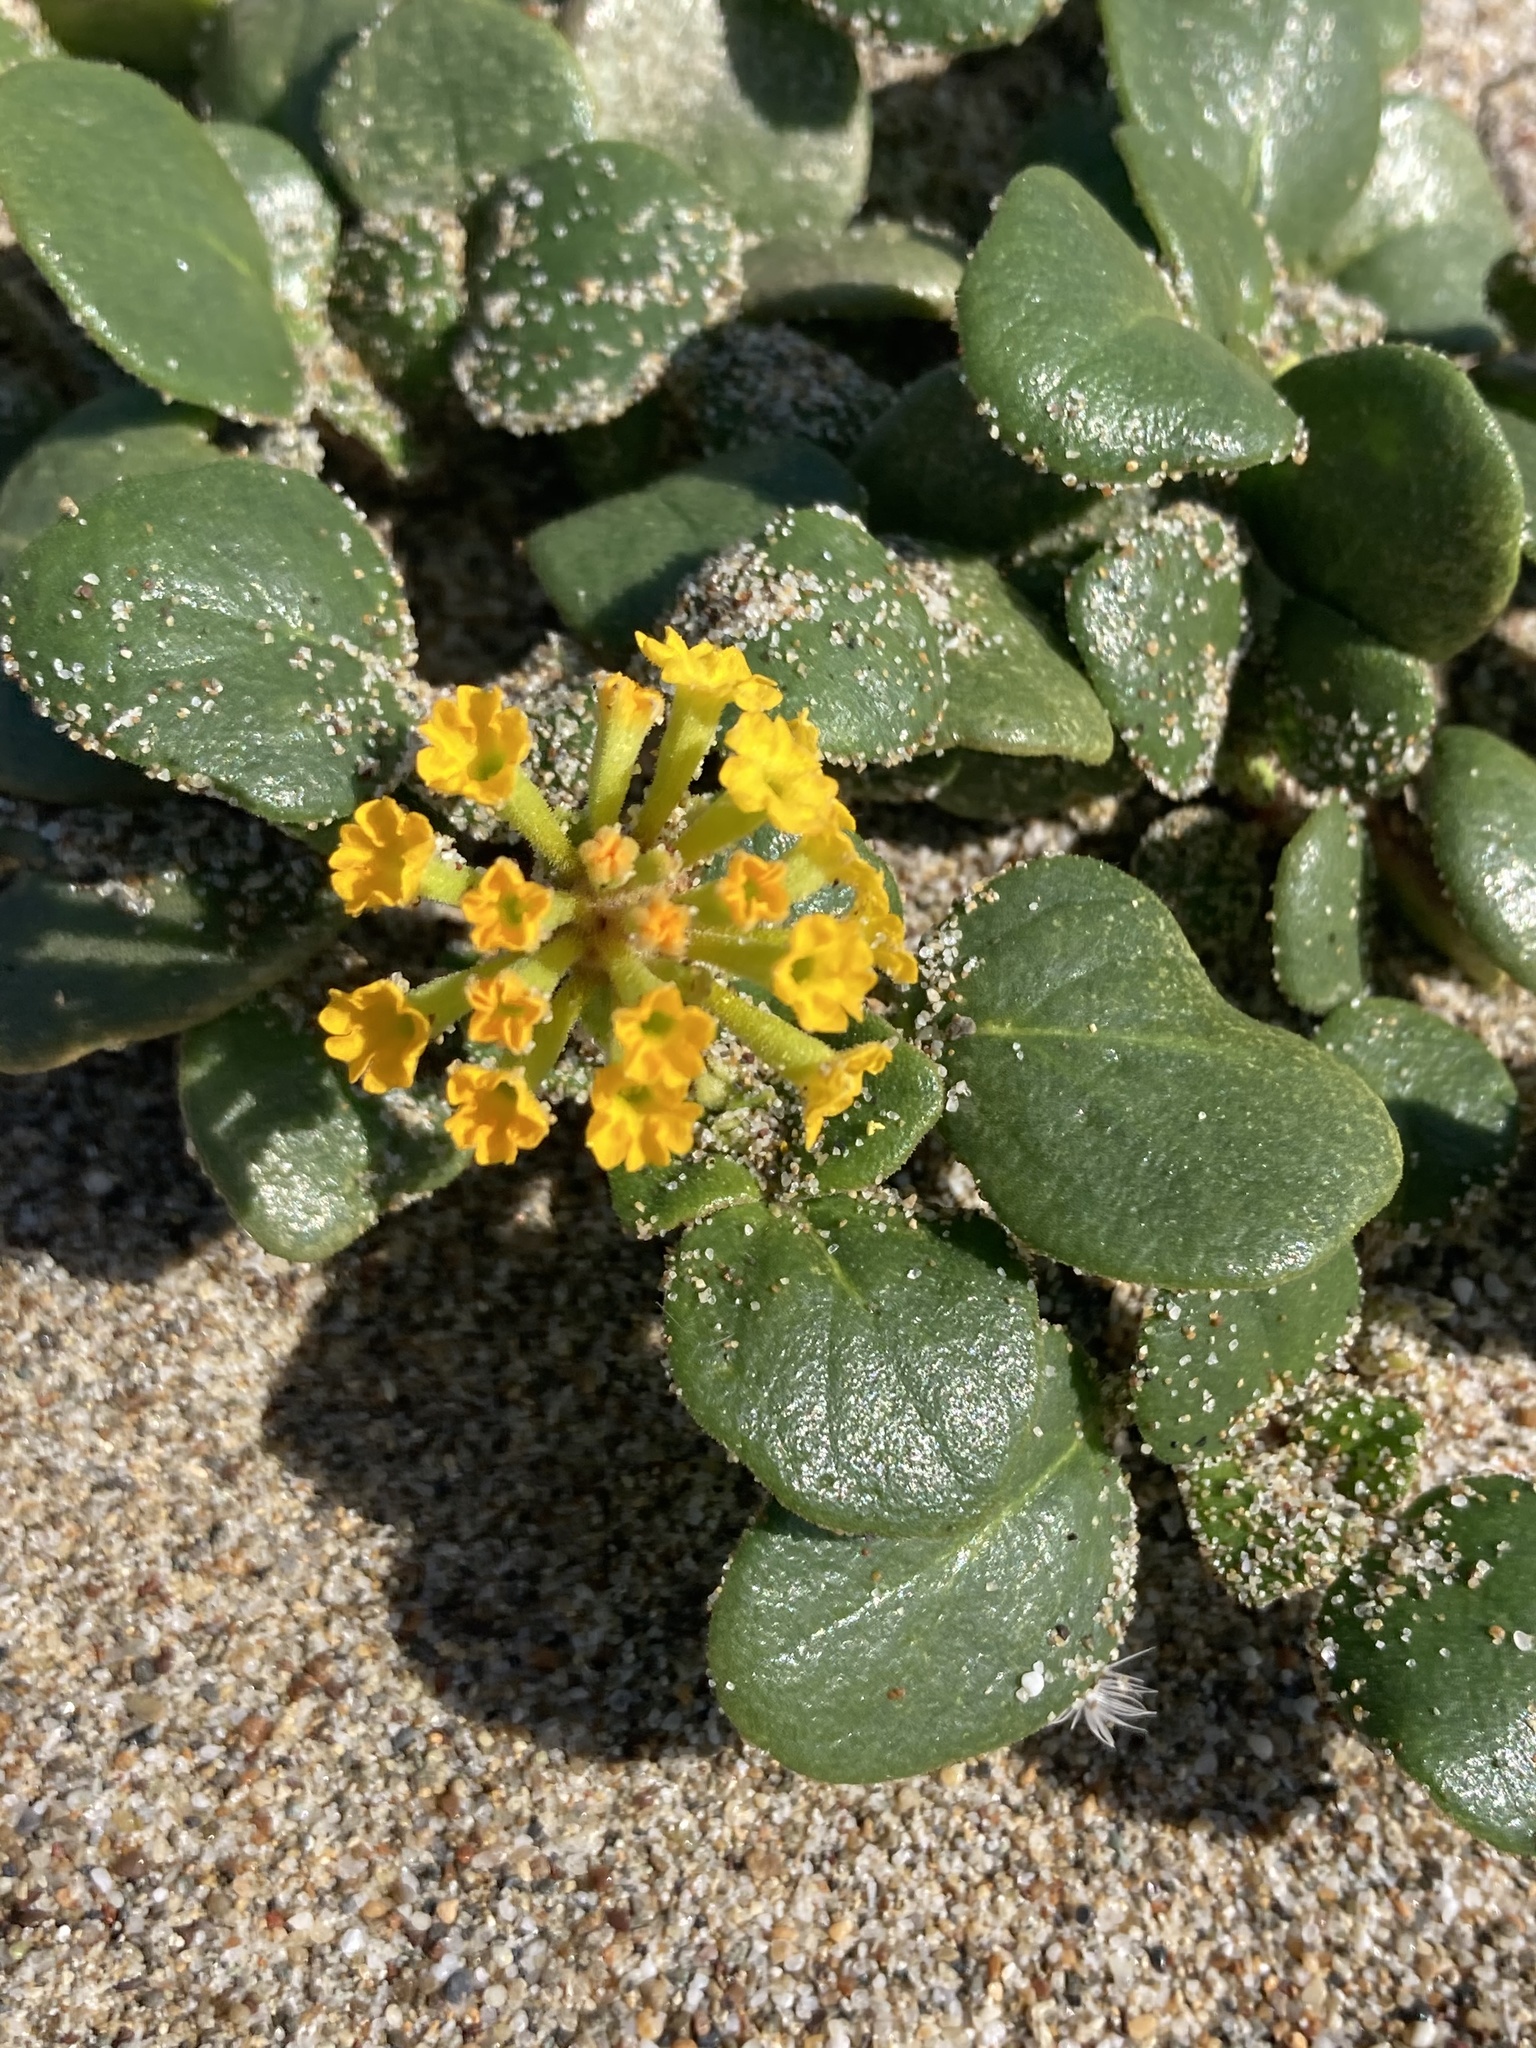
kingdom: Plantae
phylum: Tracheophyta
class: Magnoliopsida
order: Caryophyllales
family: Nyctaginaceae
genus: Abronia
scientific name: Abronia latifolia
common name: Yellow sand-verbena
